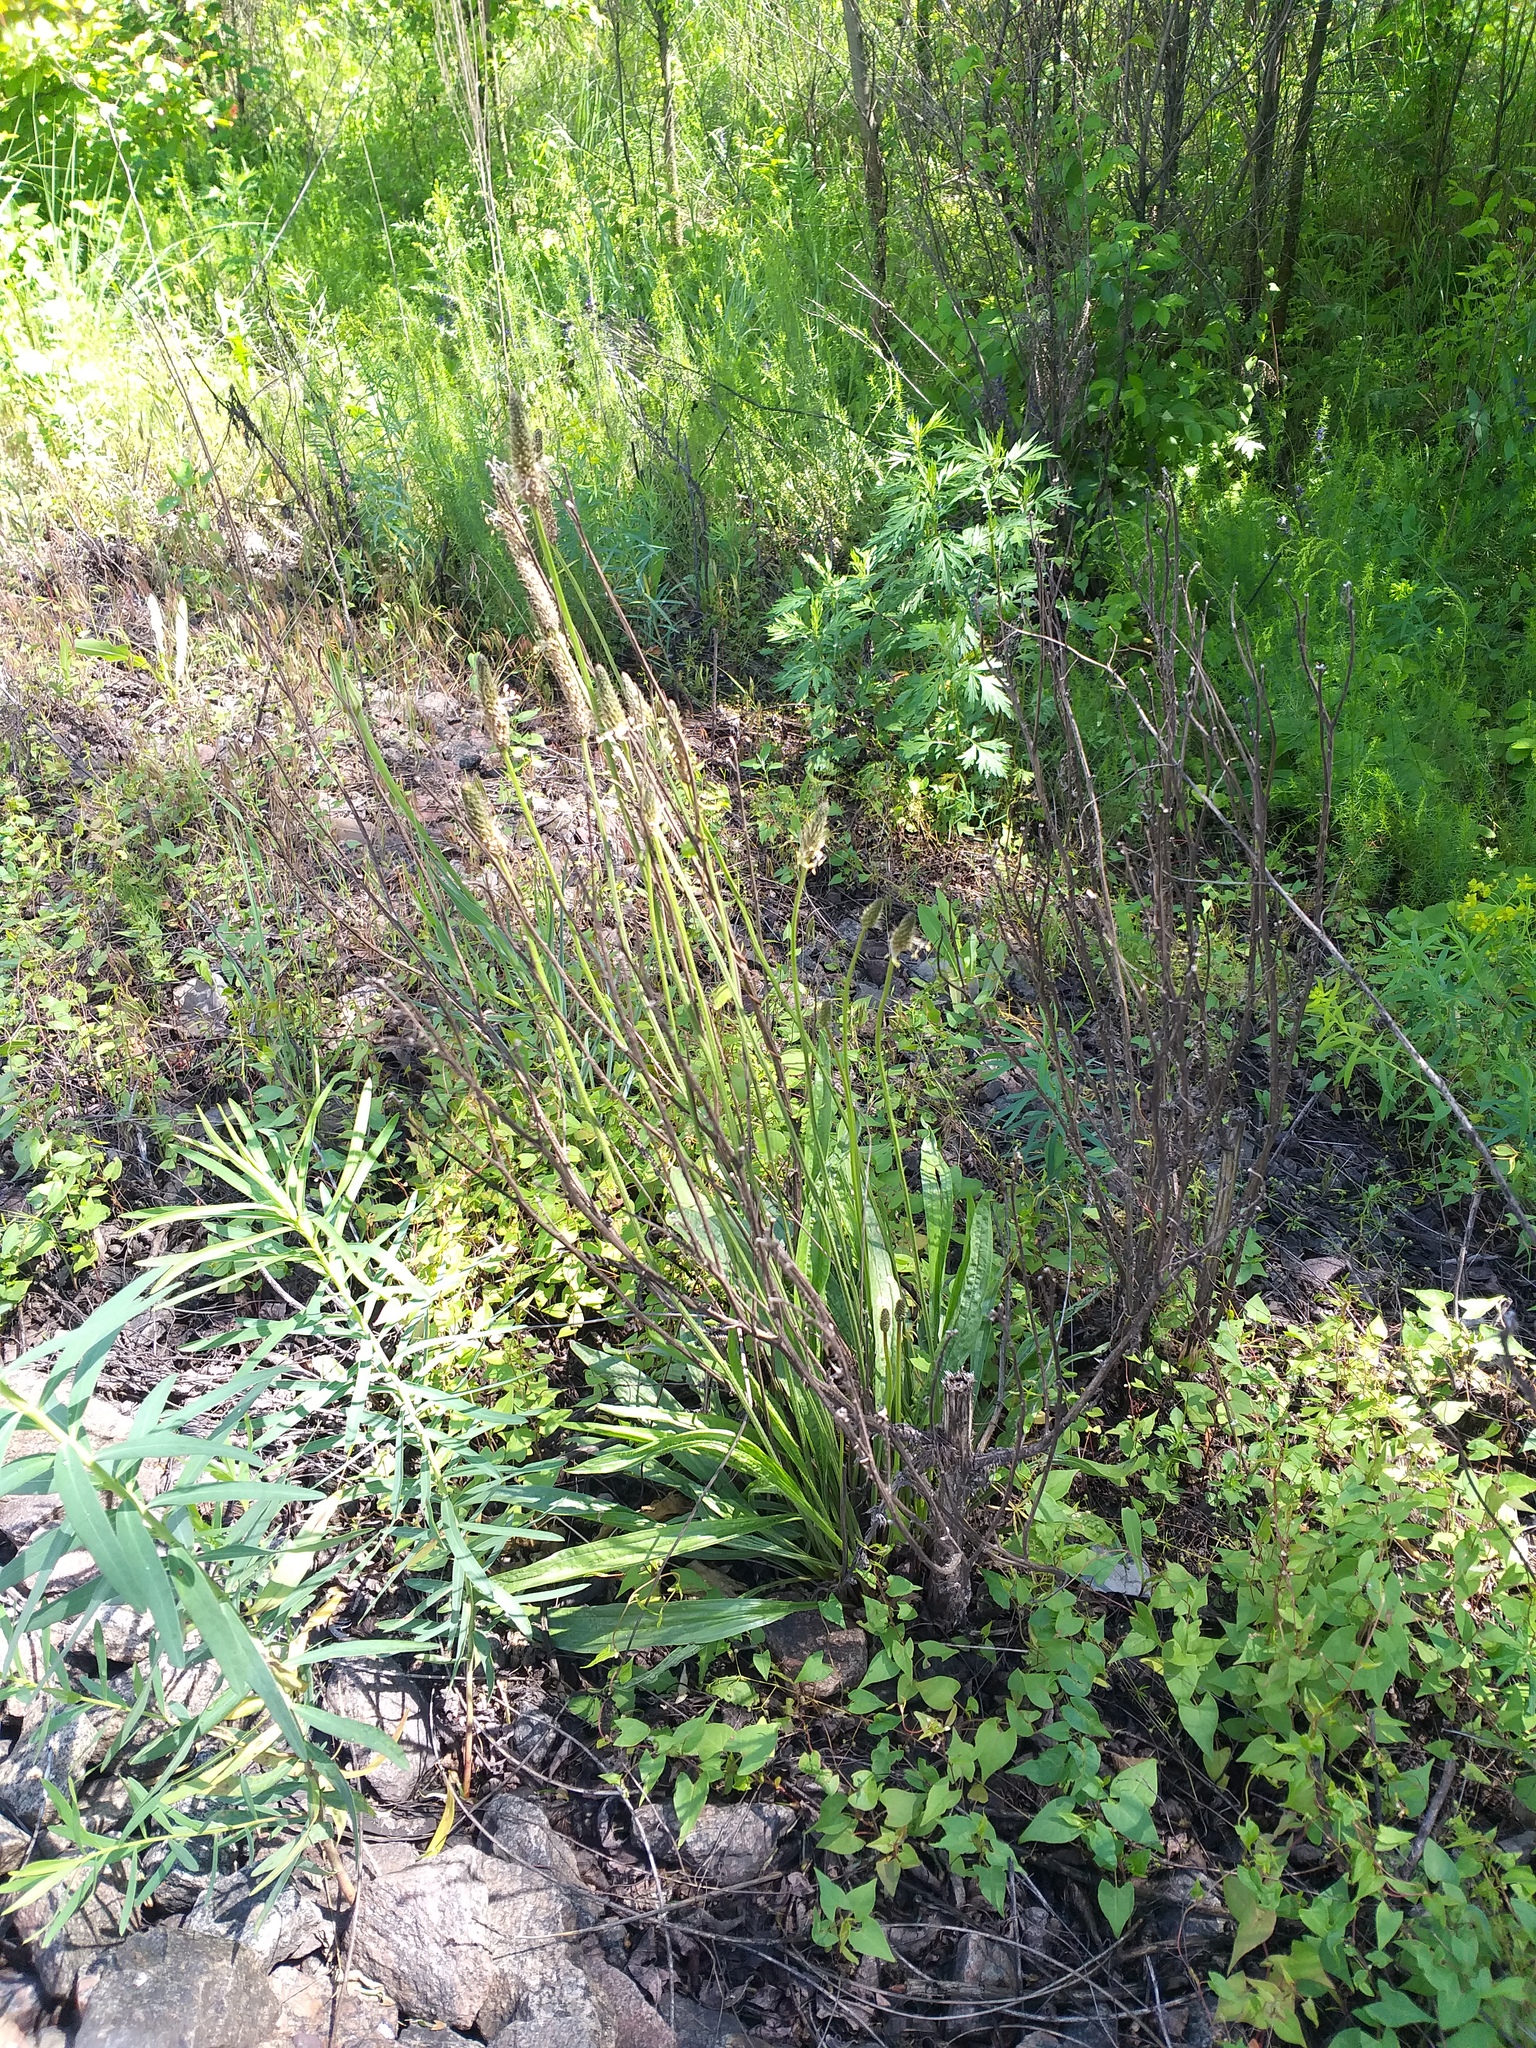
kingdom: Plantae
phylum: Tracheophyta
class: Magnoliopsida
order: Lamiales
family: Plantaginaceae
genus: Plantago
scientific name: Plantago lanceolata
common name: Ribwort plantain
